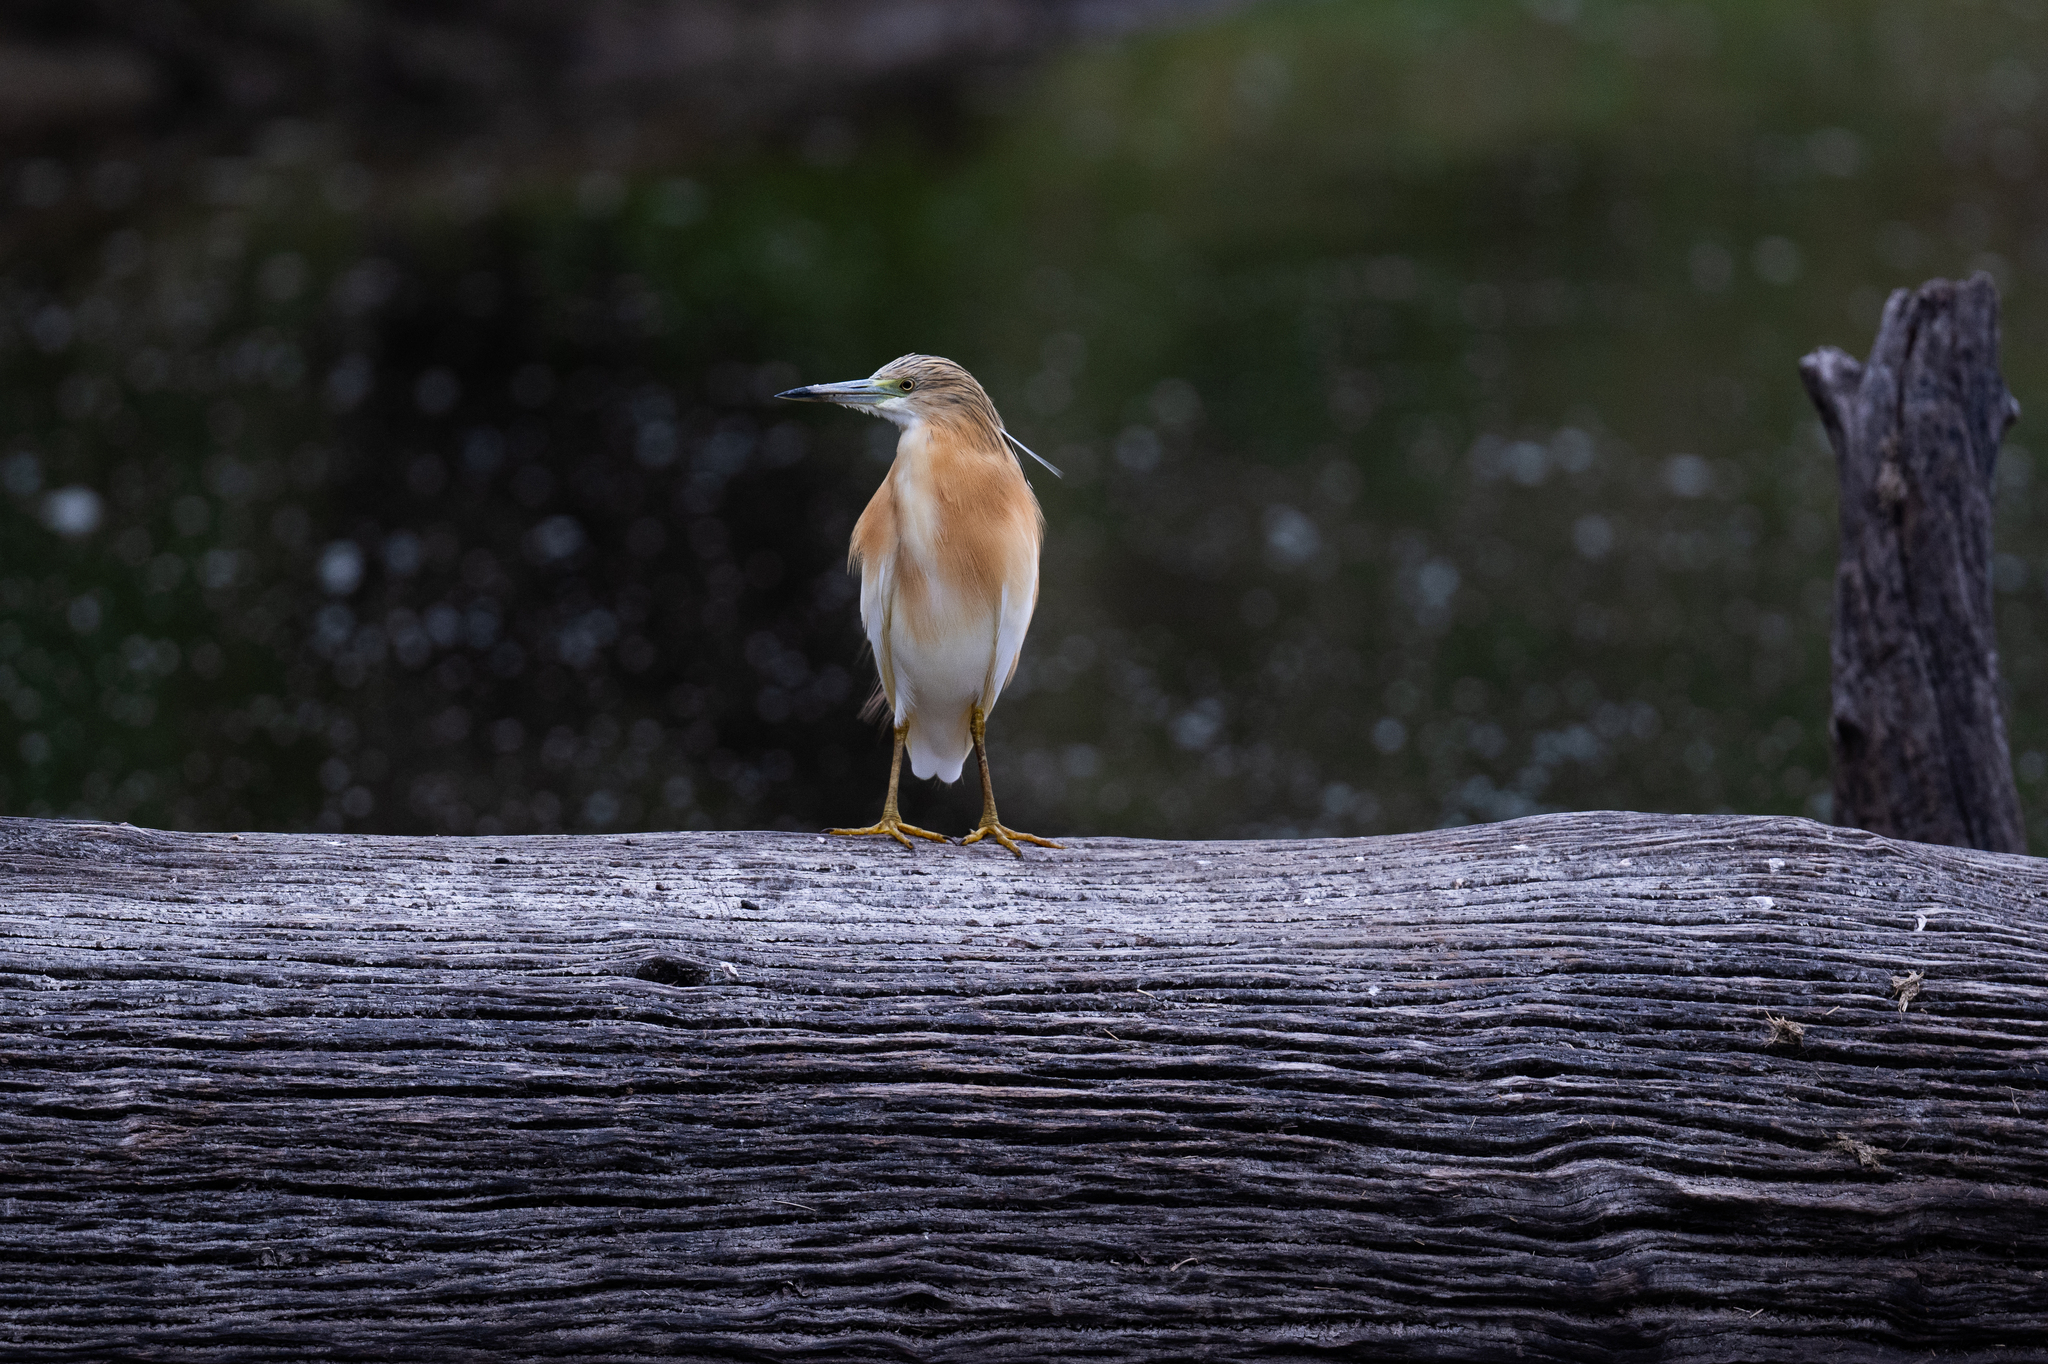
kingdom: Animalia
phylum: Chordata
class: Aves
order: Pelecaniformes
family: Ardeidae
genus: Ardeola
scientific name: Ardeola ralloides
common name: Squacco heron
